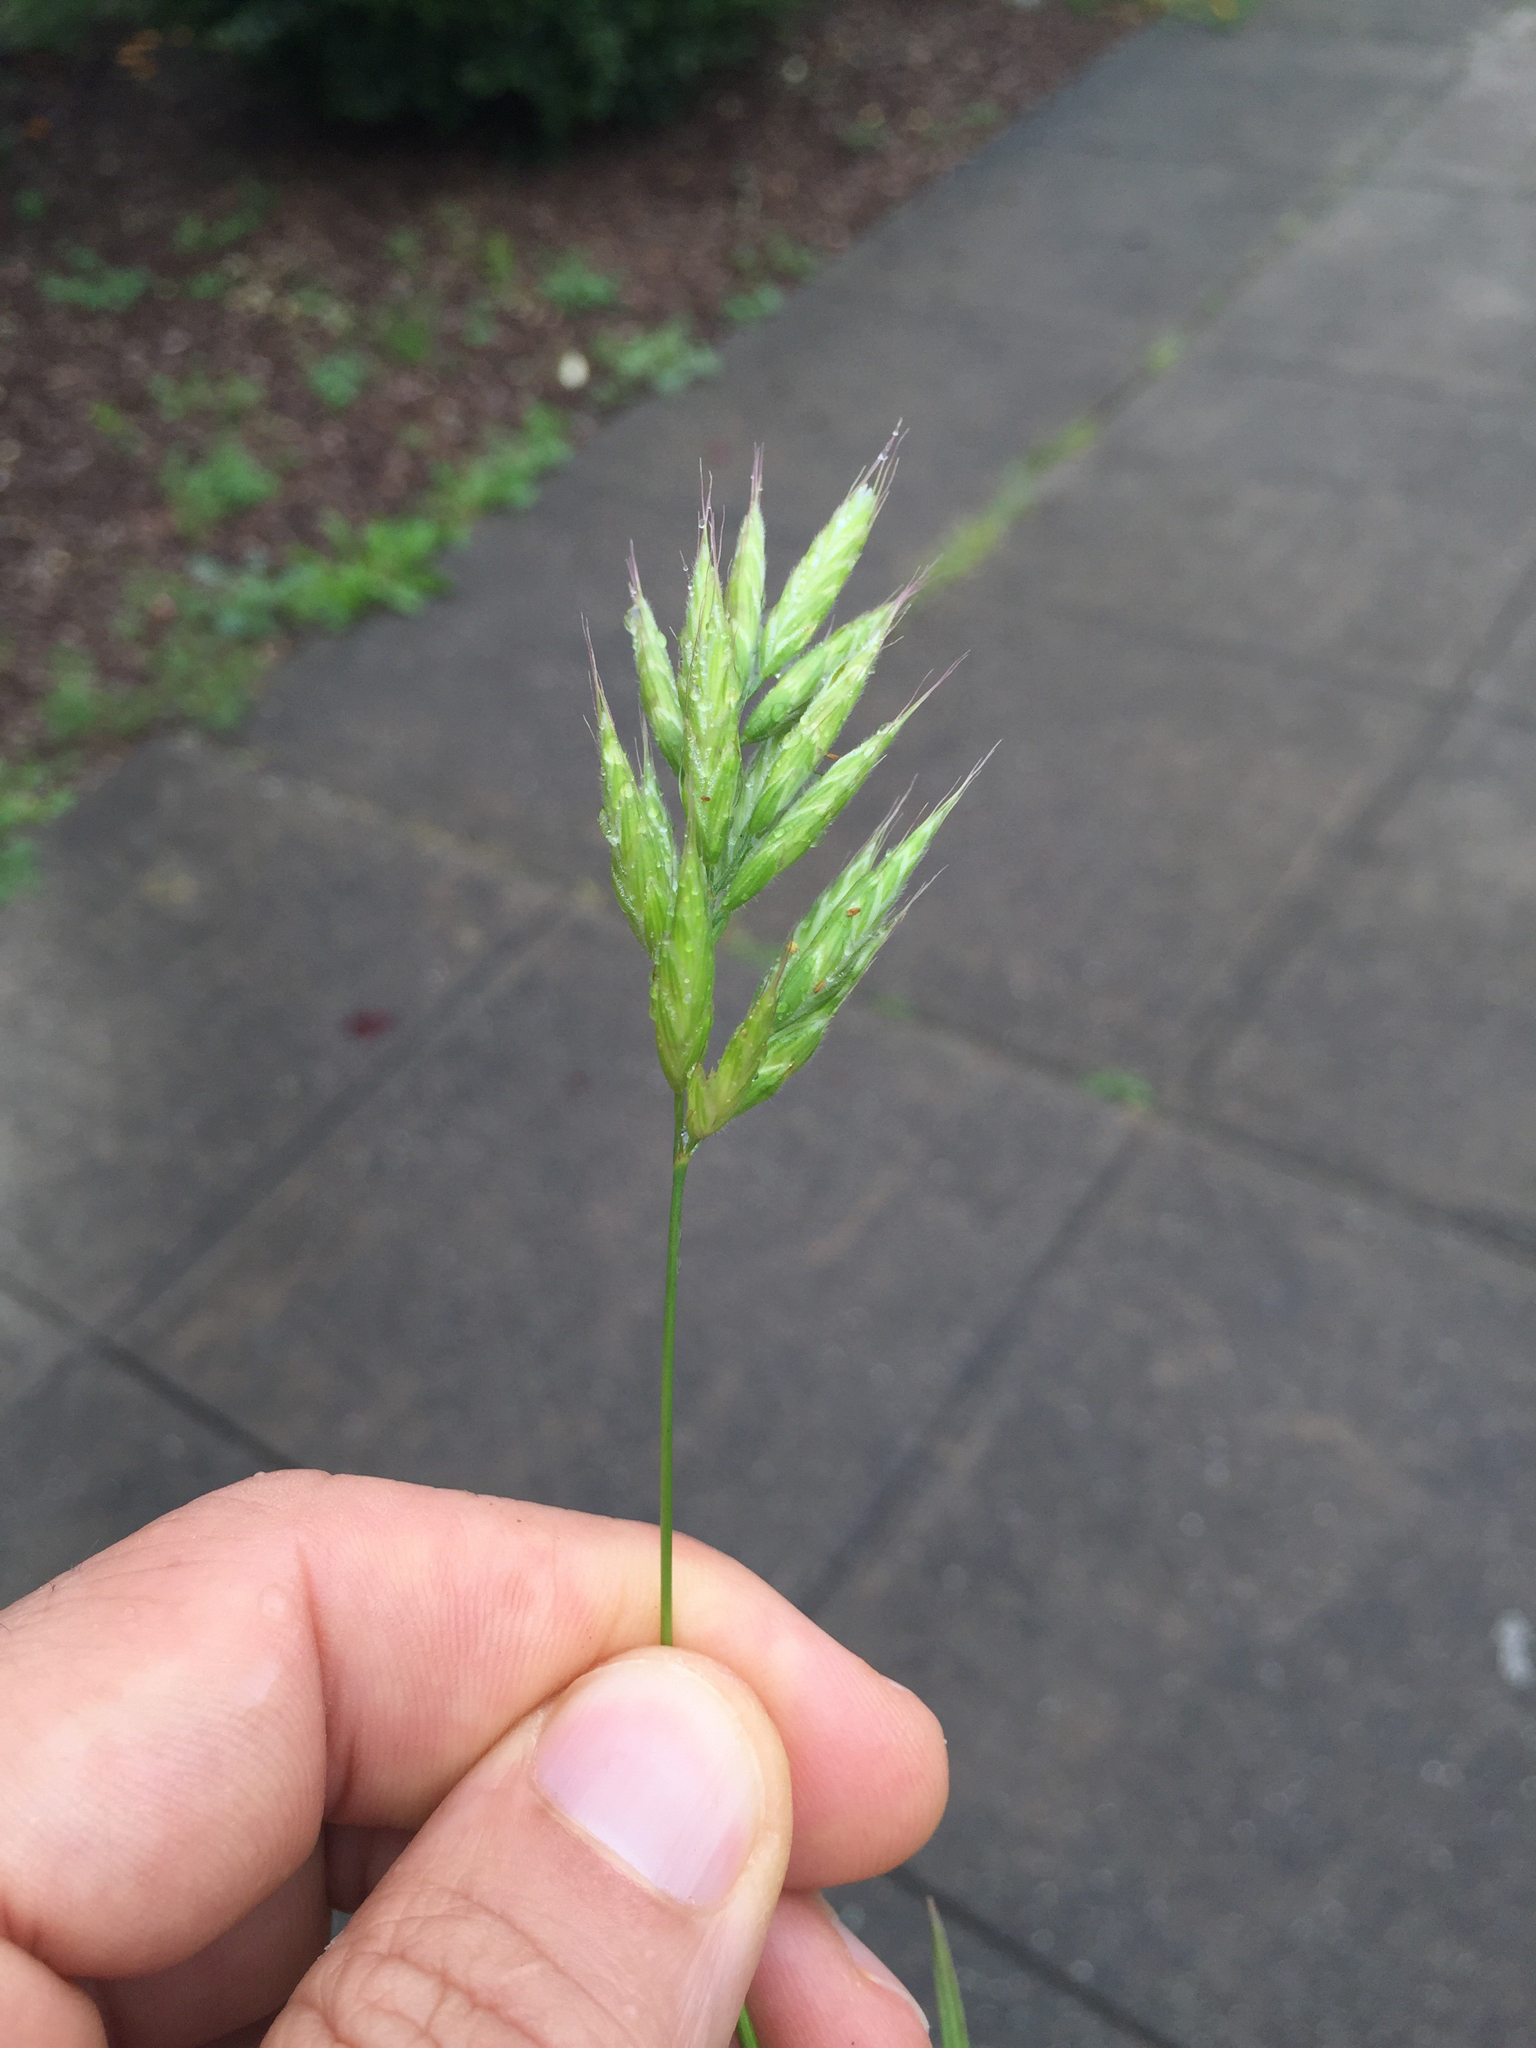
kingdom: Plantae
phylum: Tracheophyta
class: Liliopsida
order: Poales
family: Poaceae
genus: Bromus
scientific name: Bromus hordeaceus
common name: Soft brome
